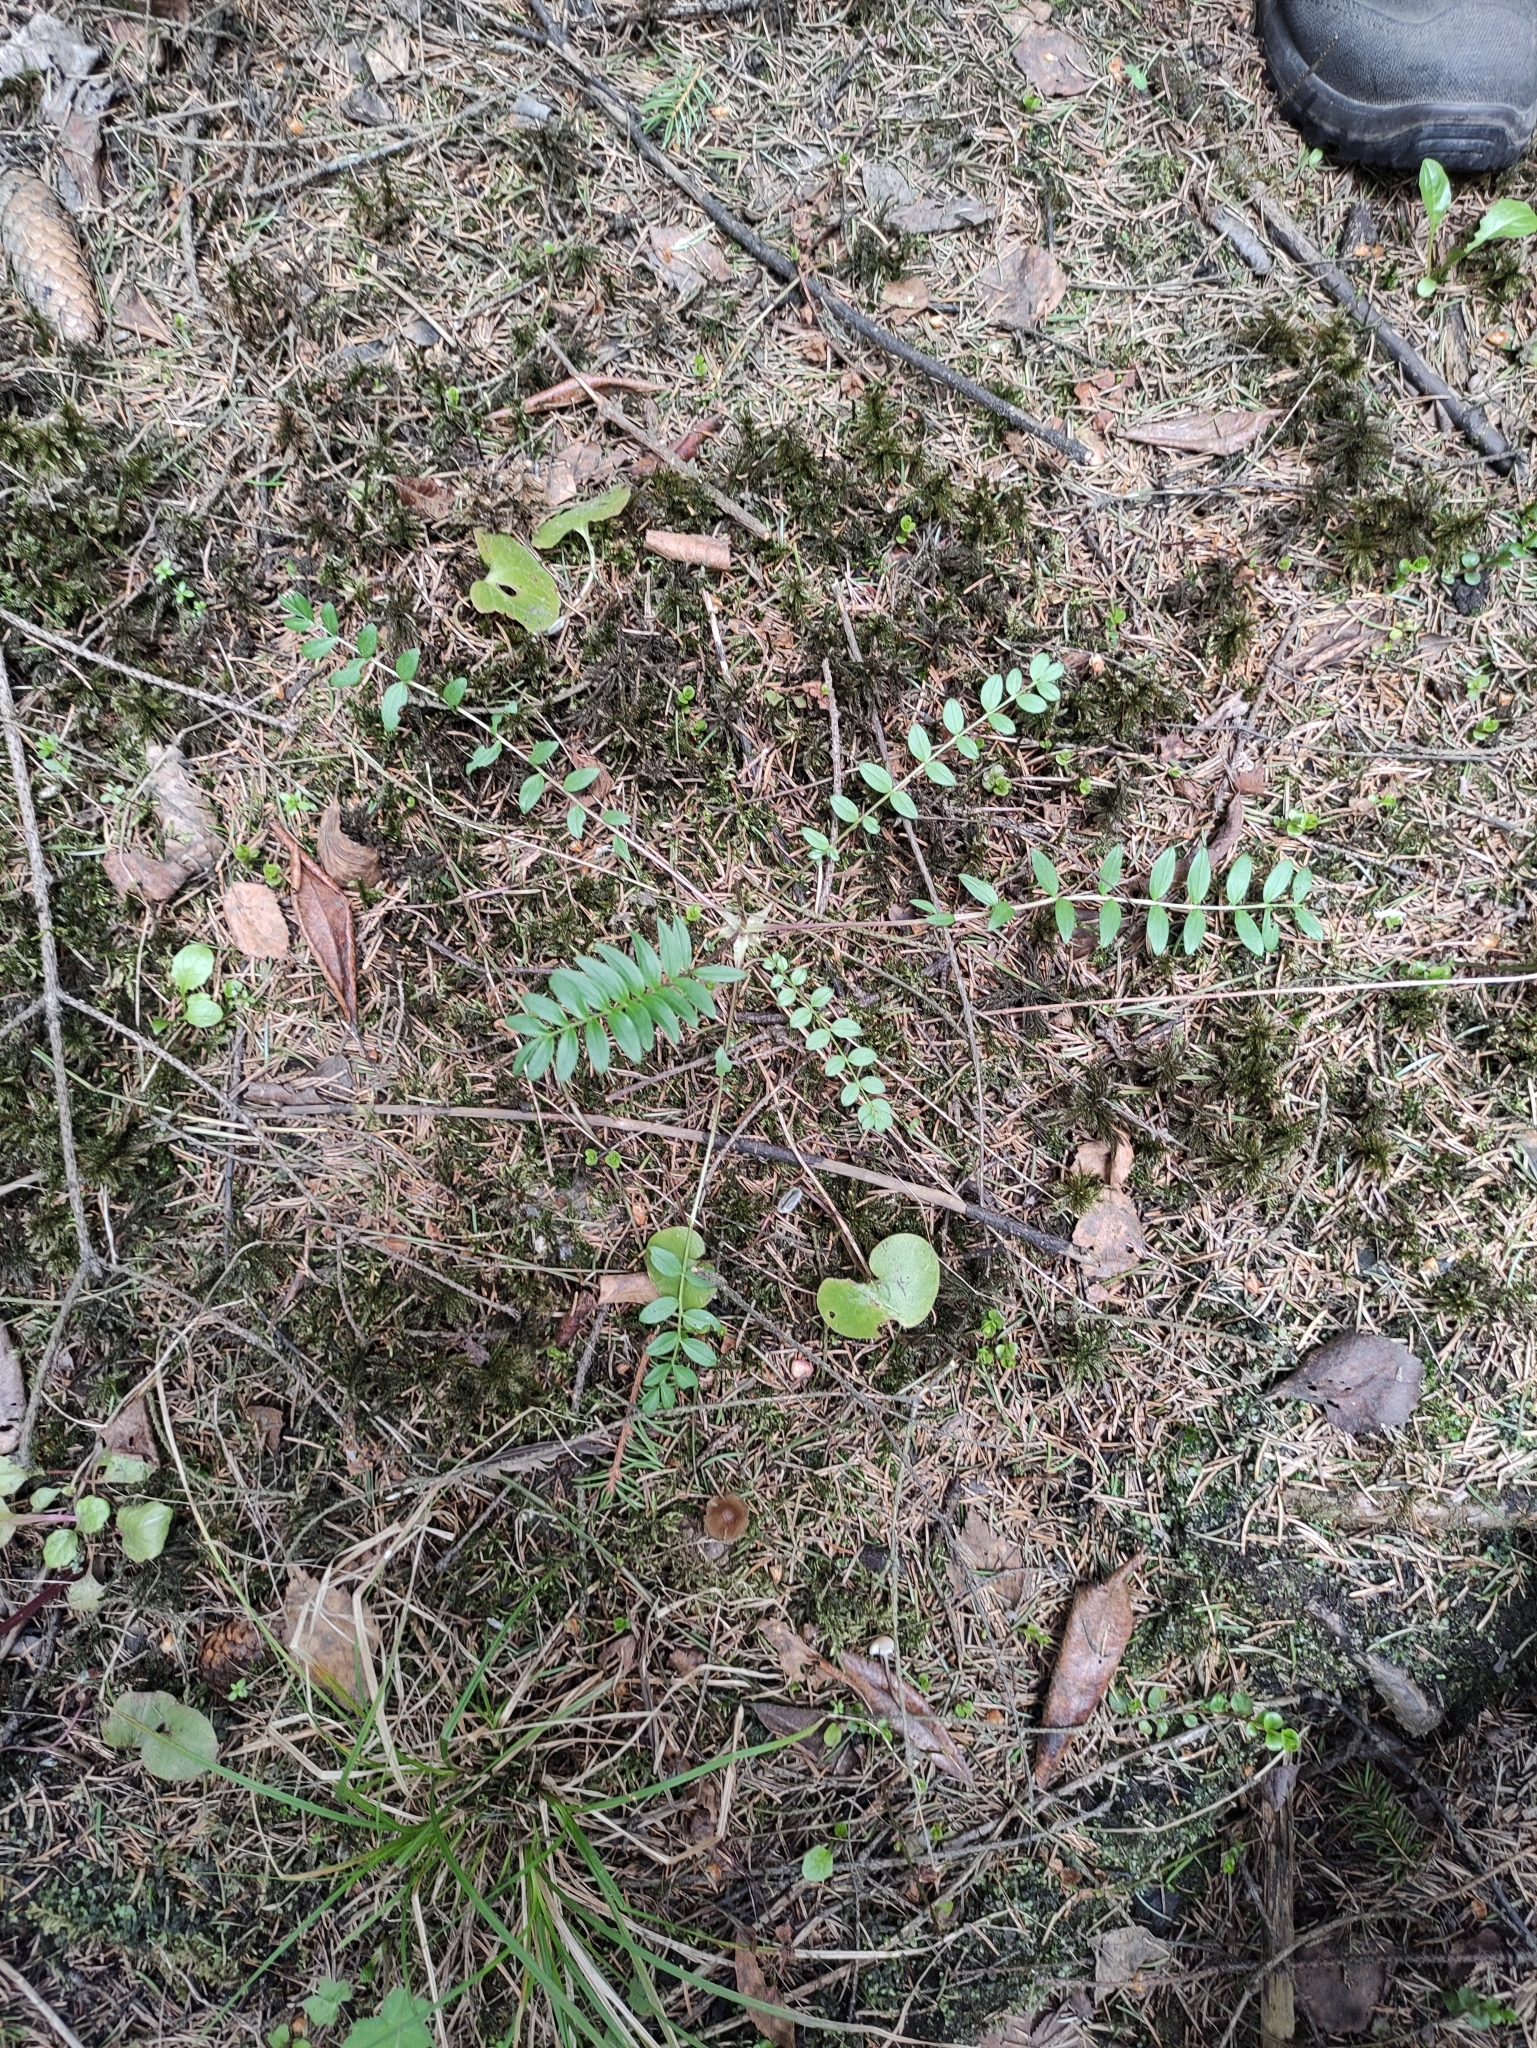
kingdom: Plantae
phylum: Tracheophyta
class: Magnoliopsida
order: Ericales
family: Polemoniaceae
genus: Polemonium
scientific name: Polemonium caeruleum
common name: Jacob's-ladder
